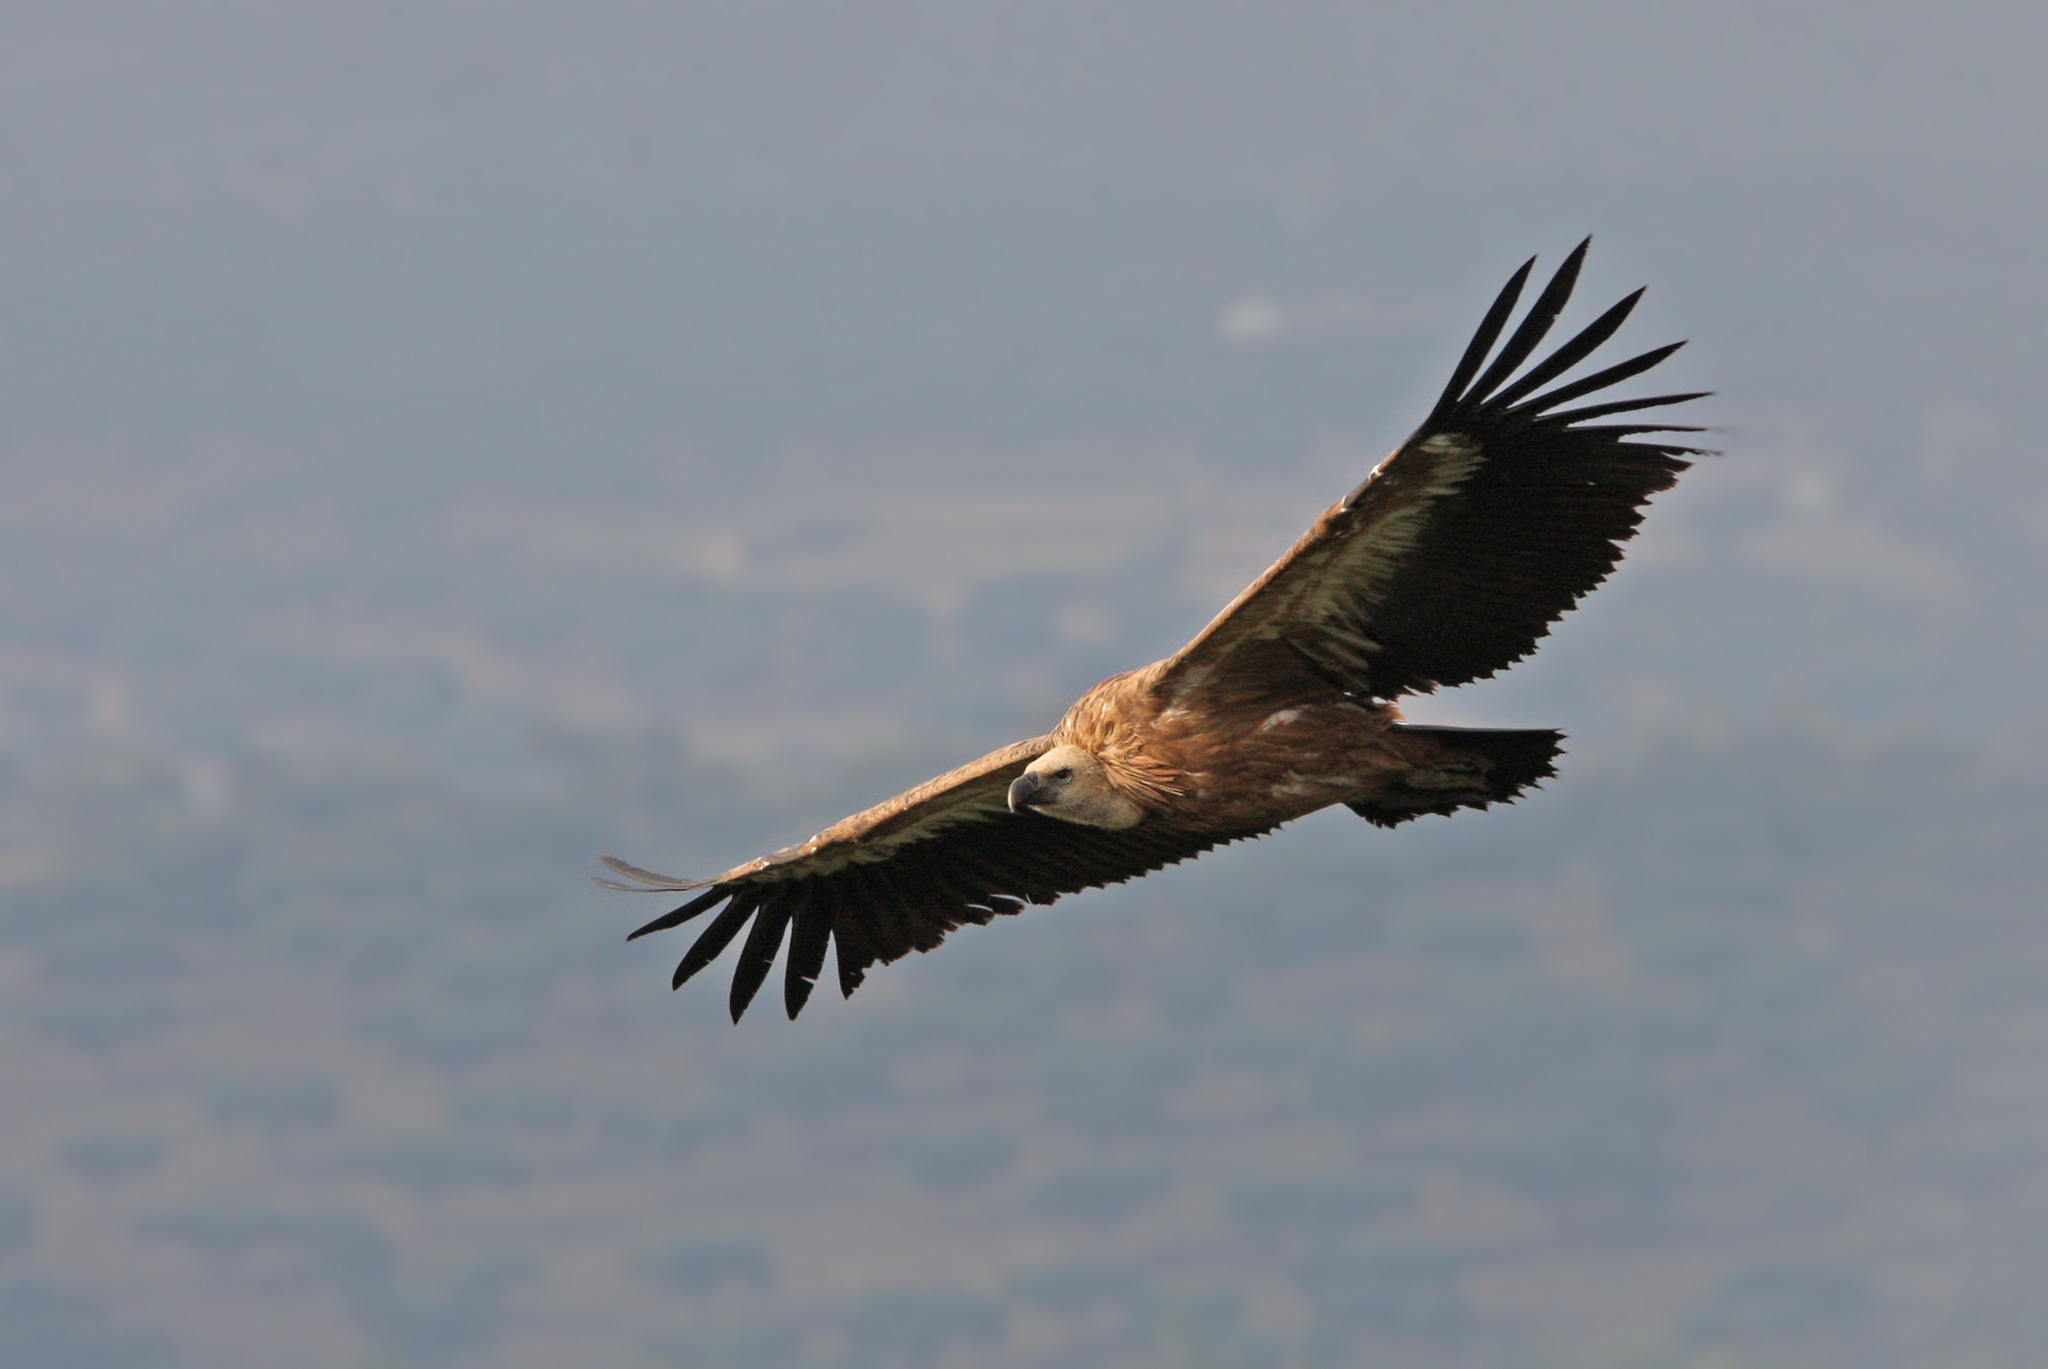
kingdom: Animalia
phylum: Chordata
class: Aves
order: Accipitriformes
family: Accipitridae
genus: Gyps
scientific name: Gyps fulvus
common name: Griffon vulture
